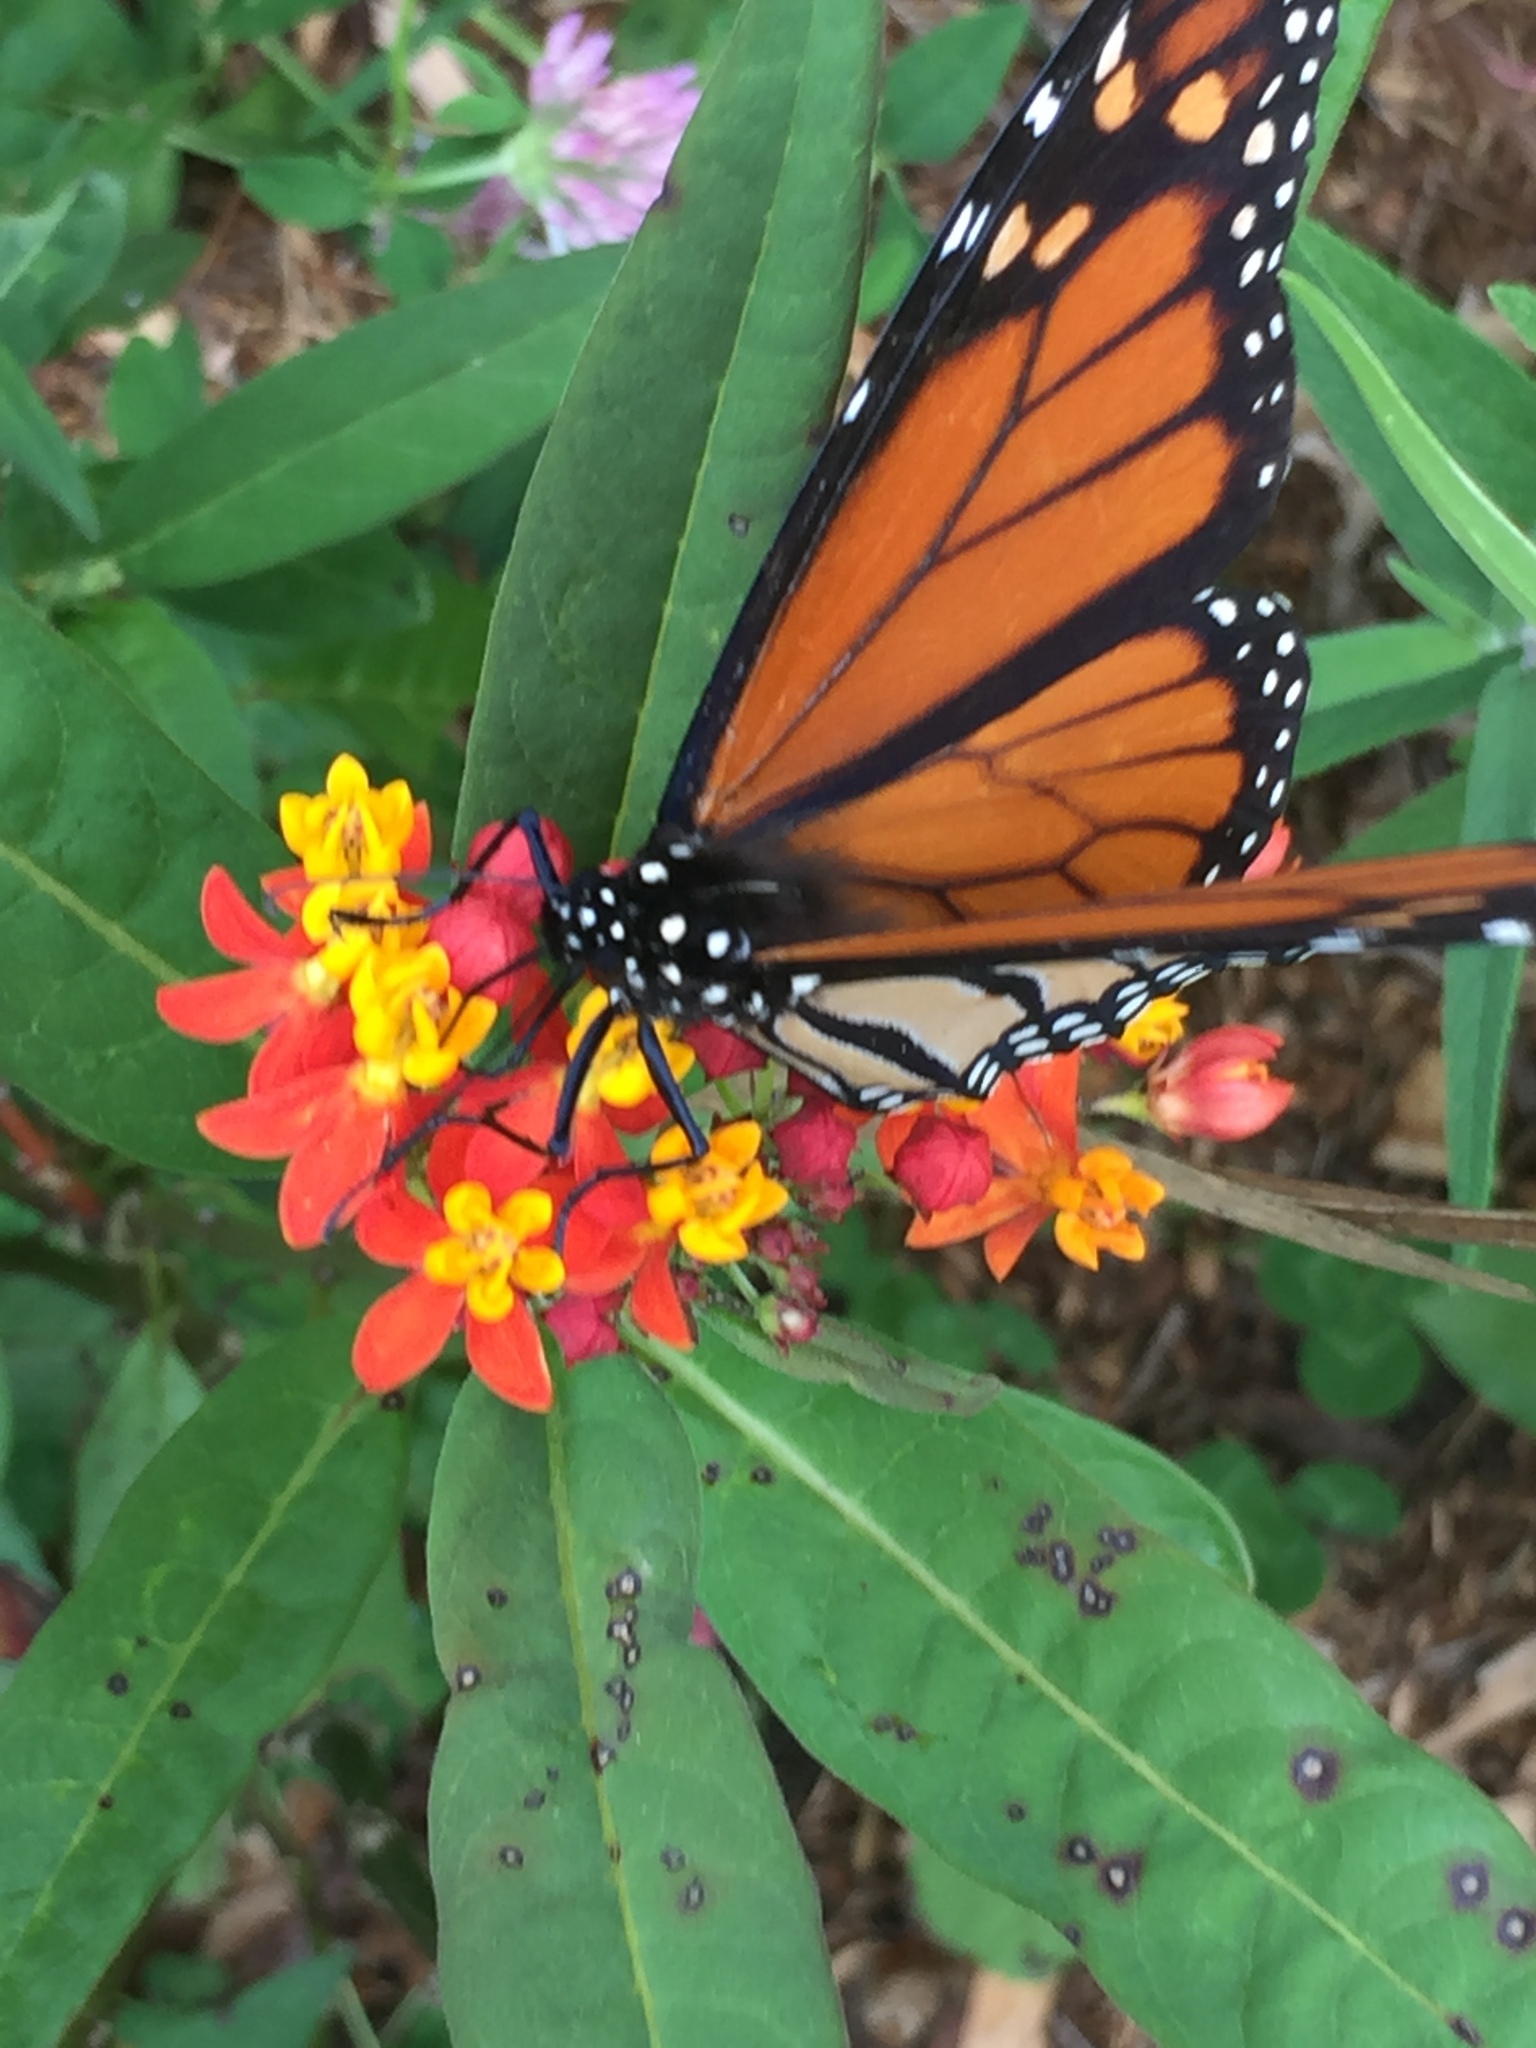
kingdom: Animalia
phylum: Arthropoda
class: Insecta
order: Lepidoptera
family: Nymphalidae
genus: Danaus
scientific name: Danaus plexippus
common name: Monarch
